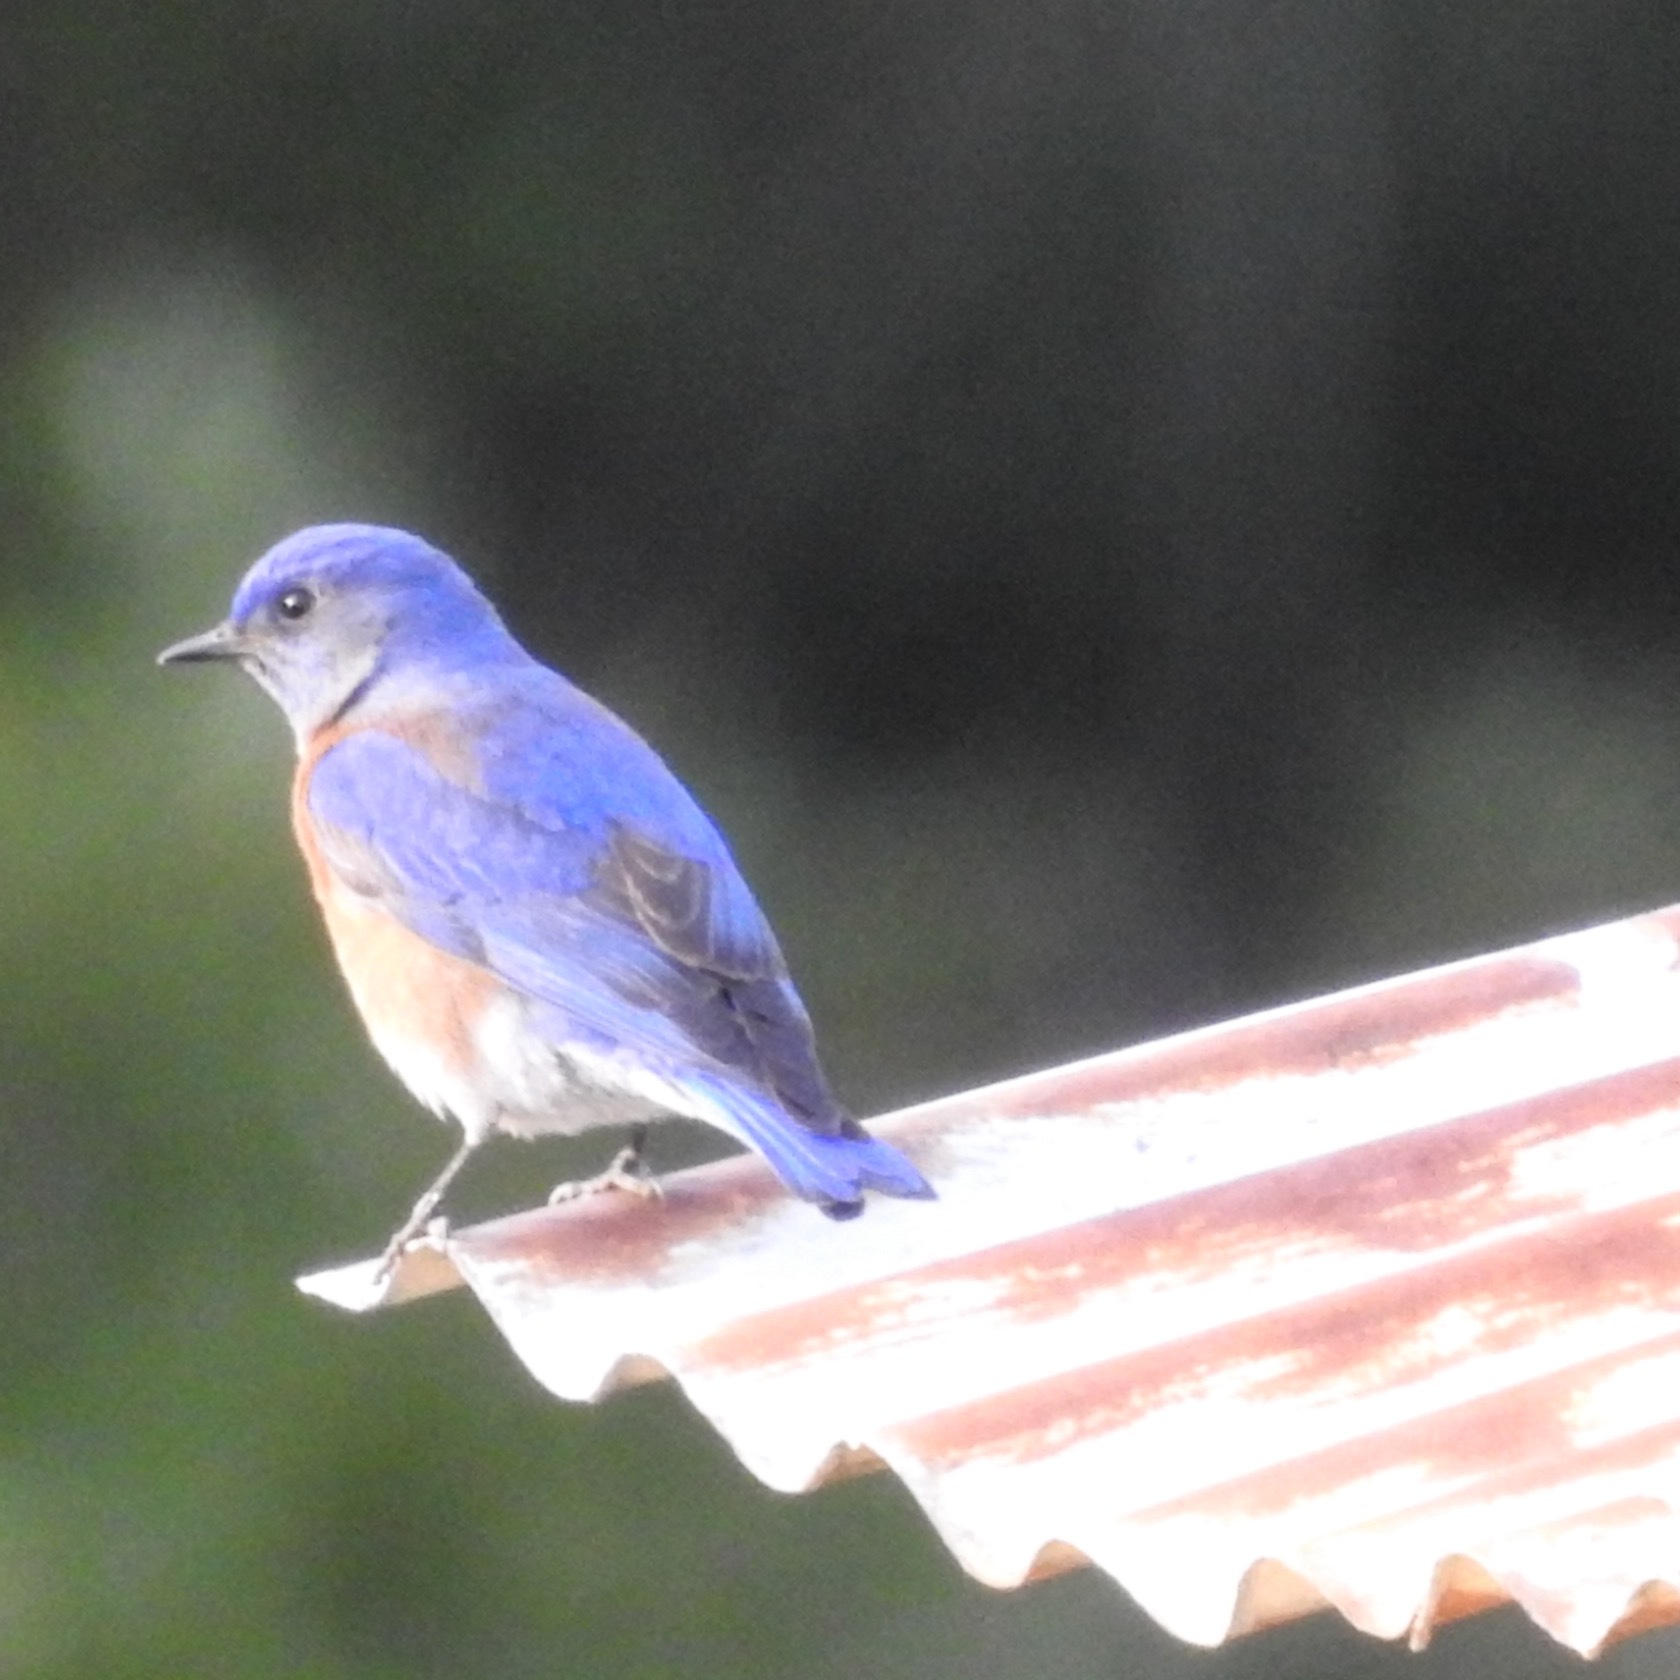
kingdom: Animalia
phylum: Chordata
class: Aves
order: Passeriformes
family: Turdidae
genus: Sialia
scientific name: Sialia mexicana
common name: Western bluebird
